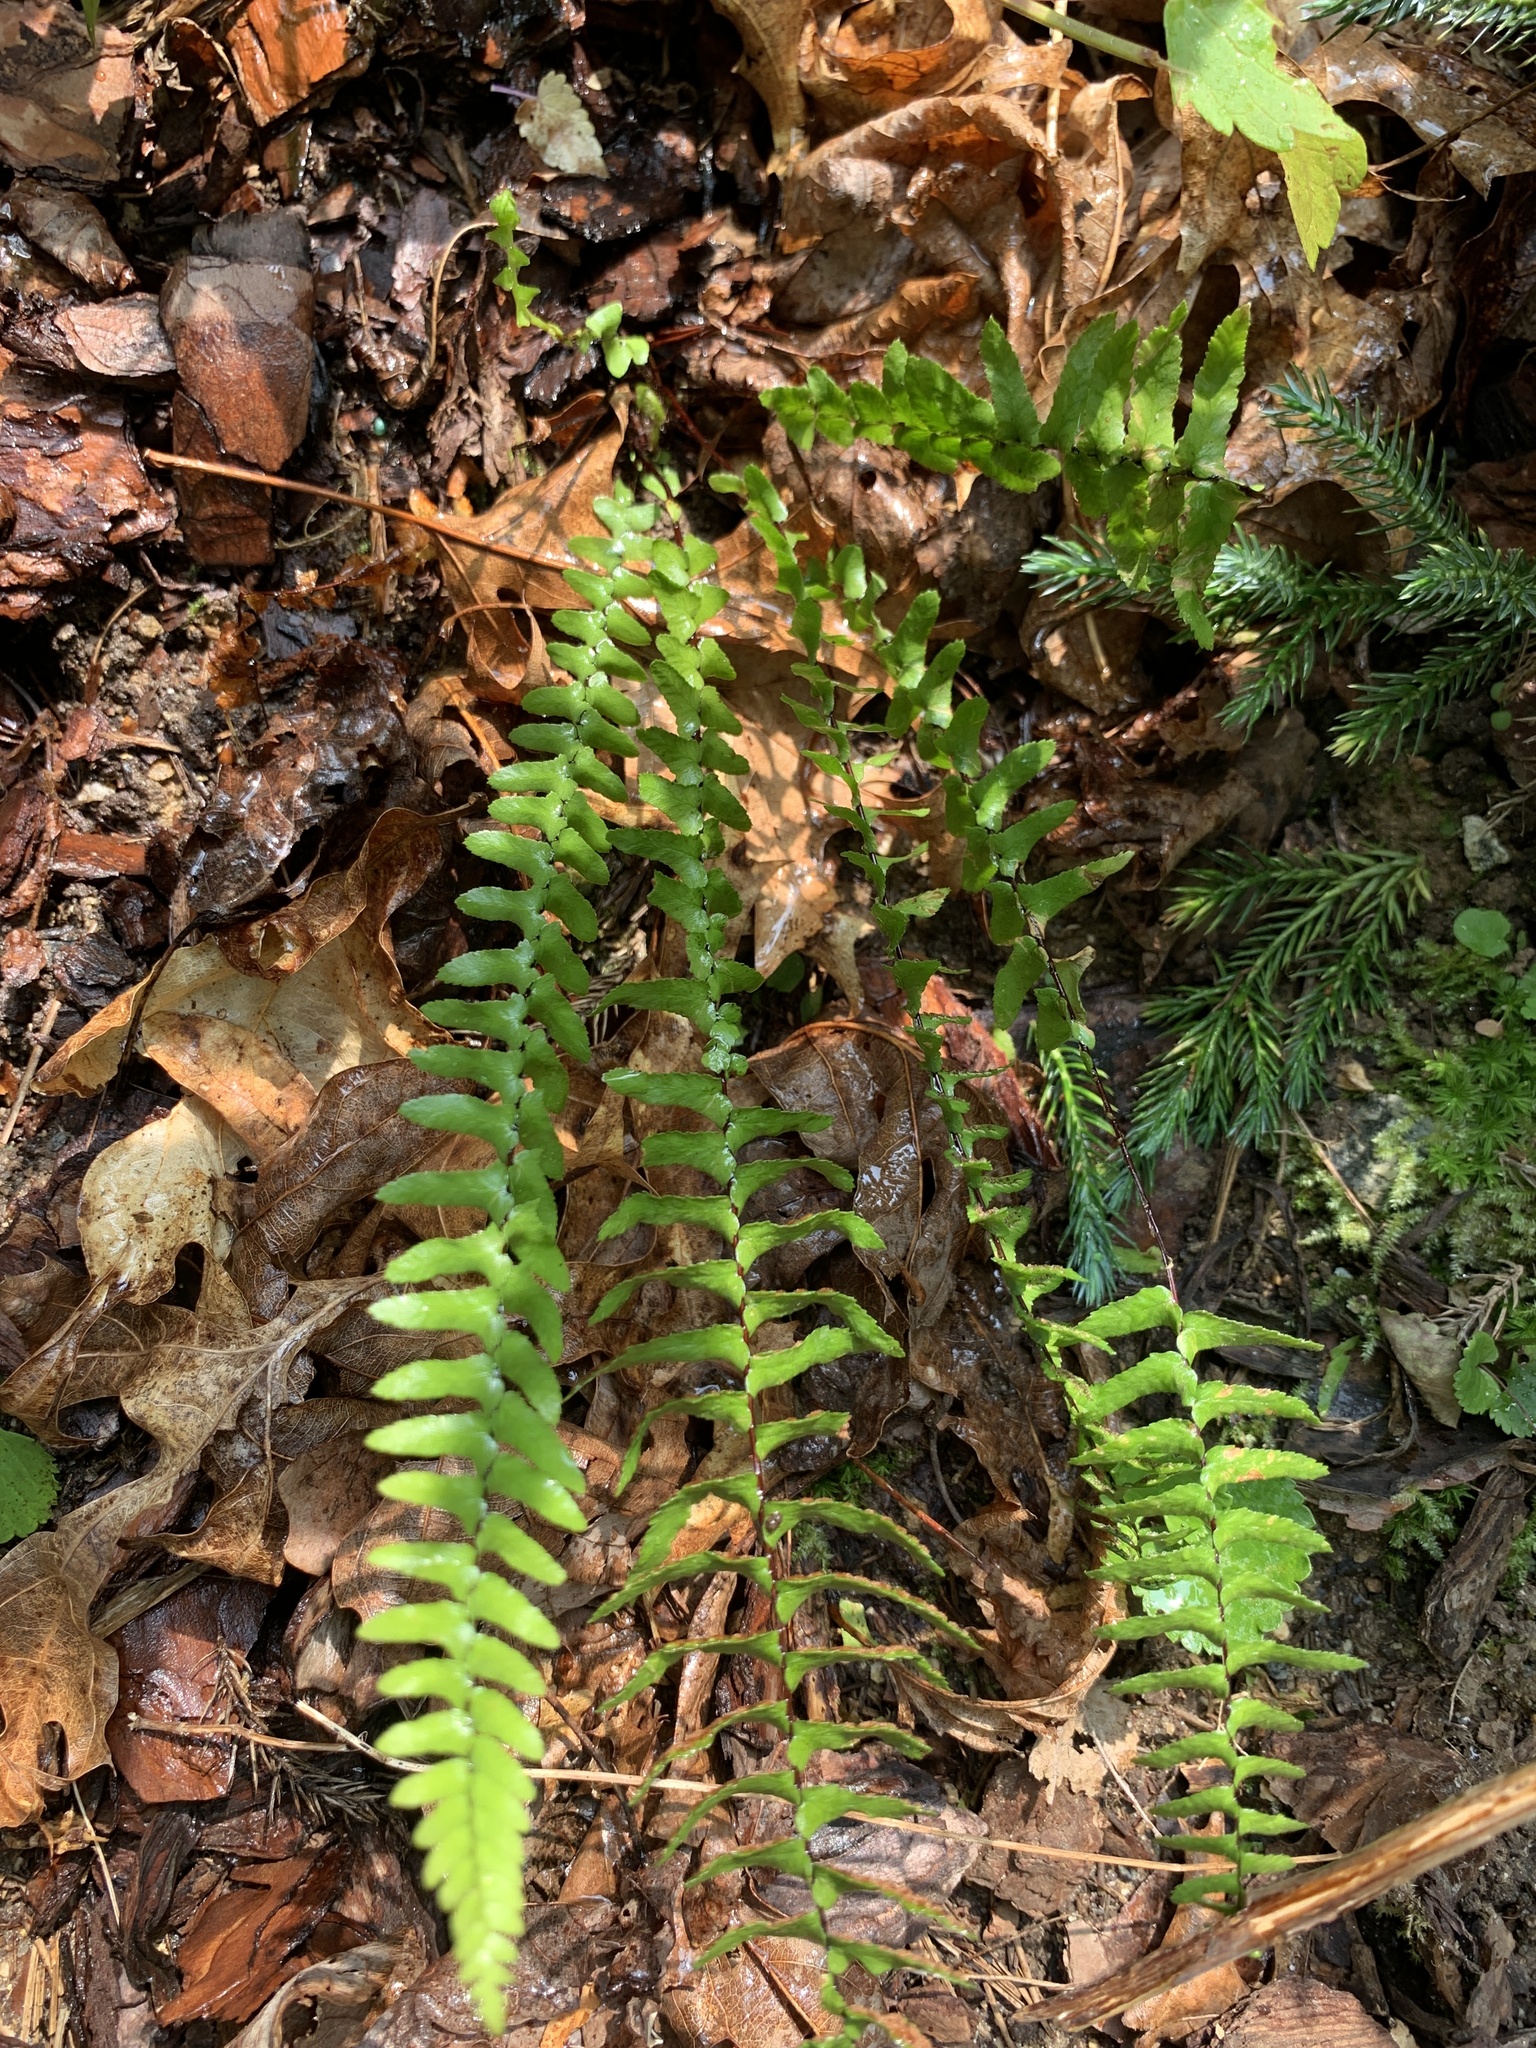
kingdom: Plantae
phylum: Tracheophyta
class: Polypodiopsida
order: Polypodiales
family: Aspleniaceae
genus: Asplenium
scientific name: Asplenium platyneuron
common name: Ebony spleenwort
